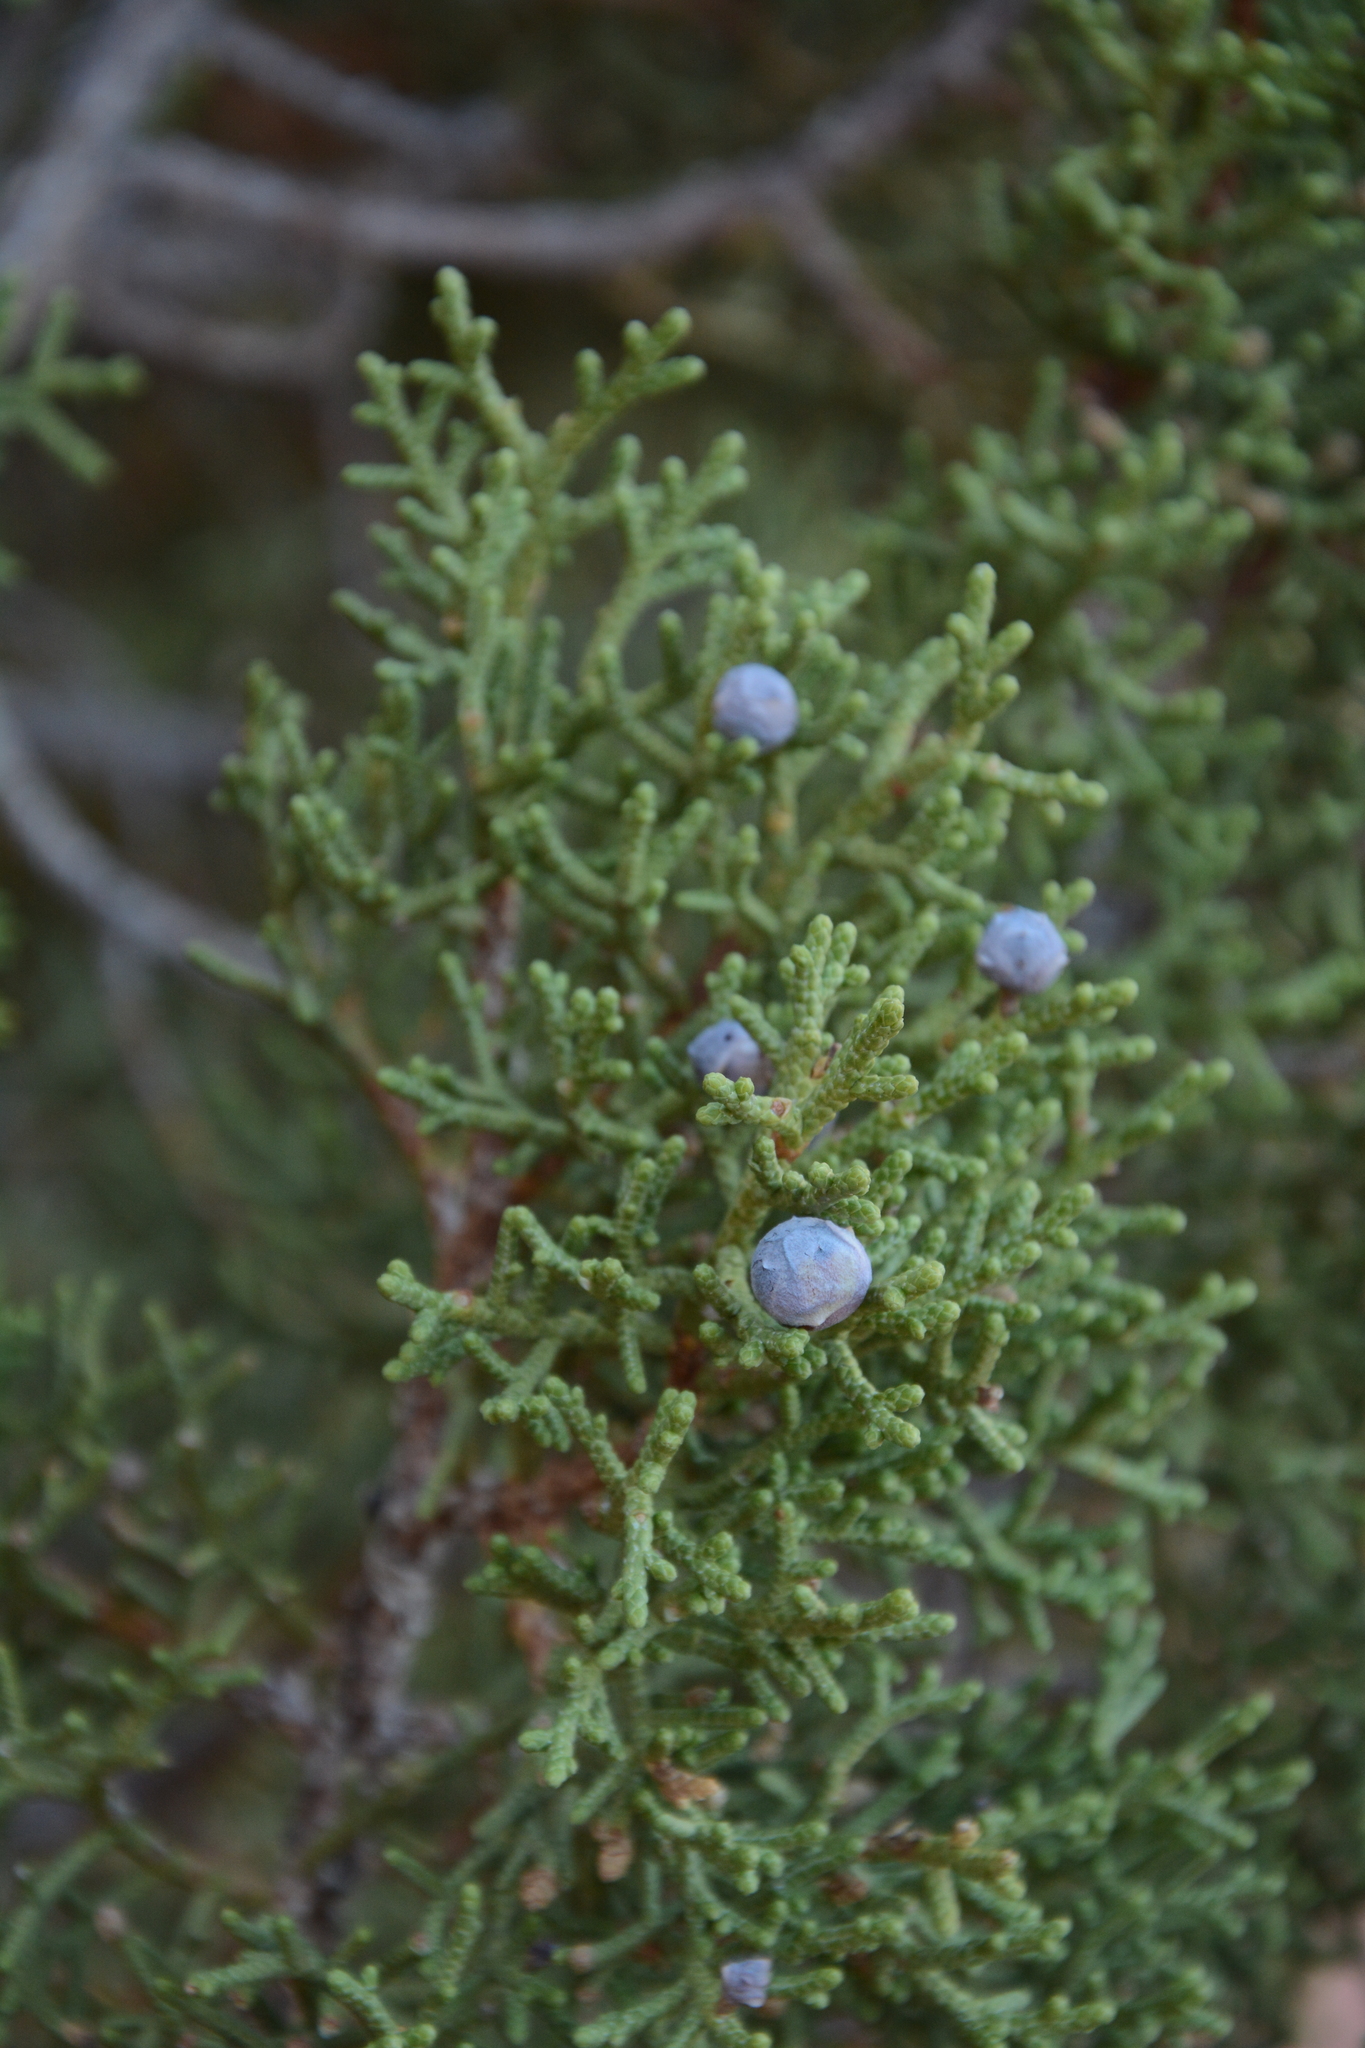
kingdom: Plantae
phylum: Tracheophyta
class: Pinopsida
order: Pinales
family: Cupressaceae
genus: Juniperus
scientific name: Juniperus osteosperma
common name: Utah juniper
